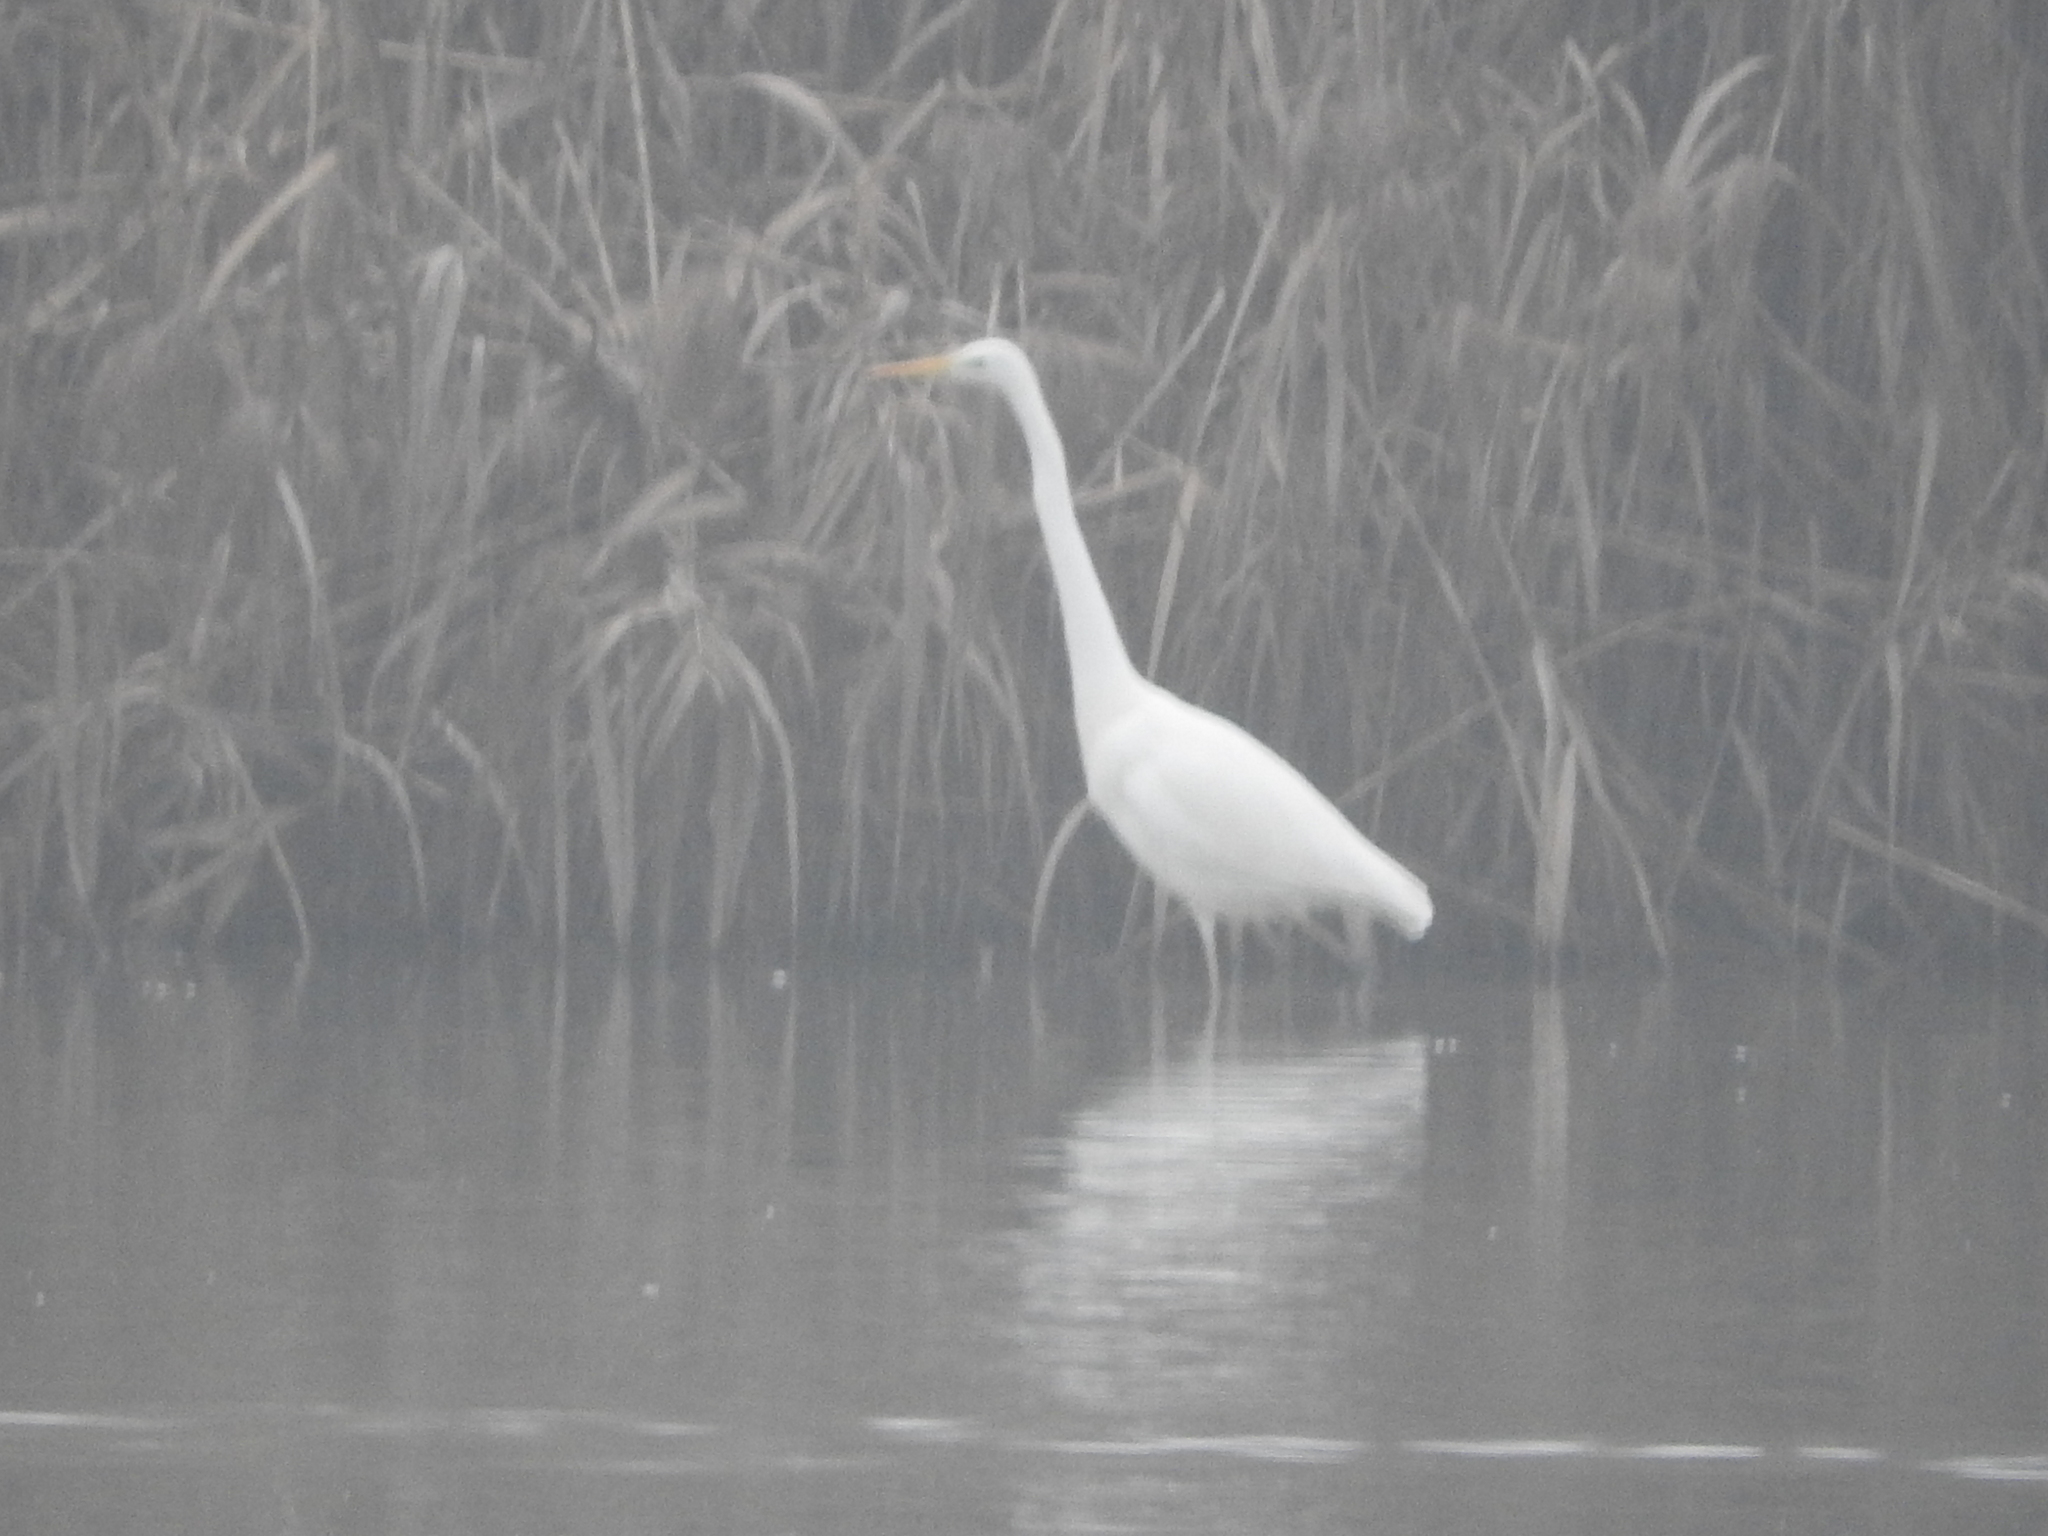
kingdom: Animalia
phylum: Chordata
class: Aves
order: Pelecaniformes
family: Ardeidae
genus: Ardea
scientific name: Ardea alba
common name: Great egret
